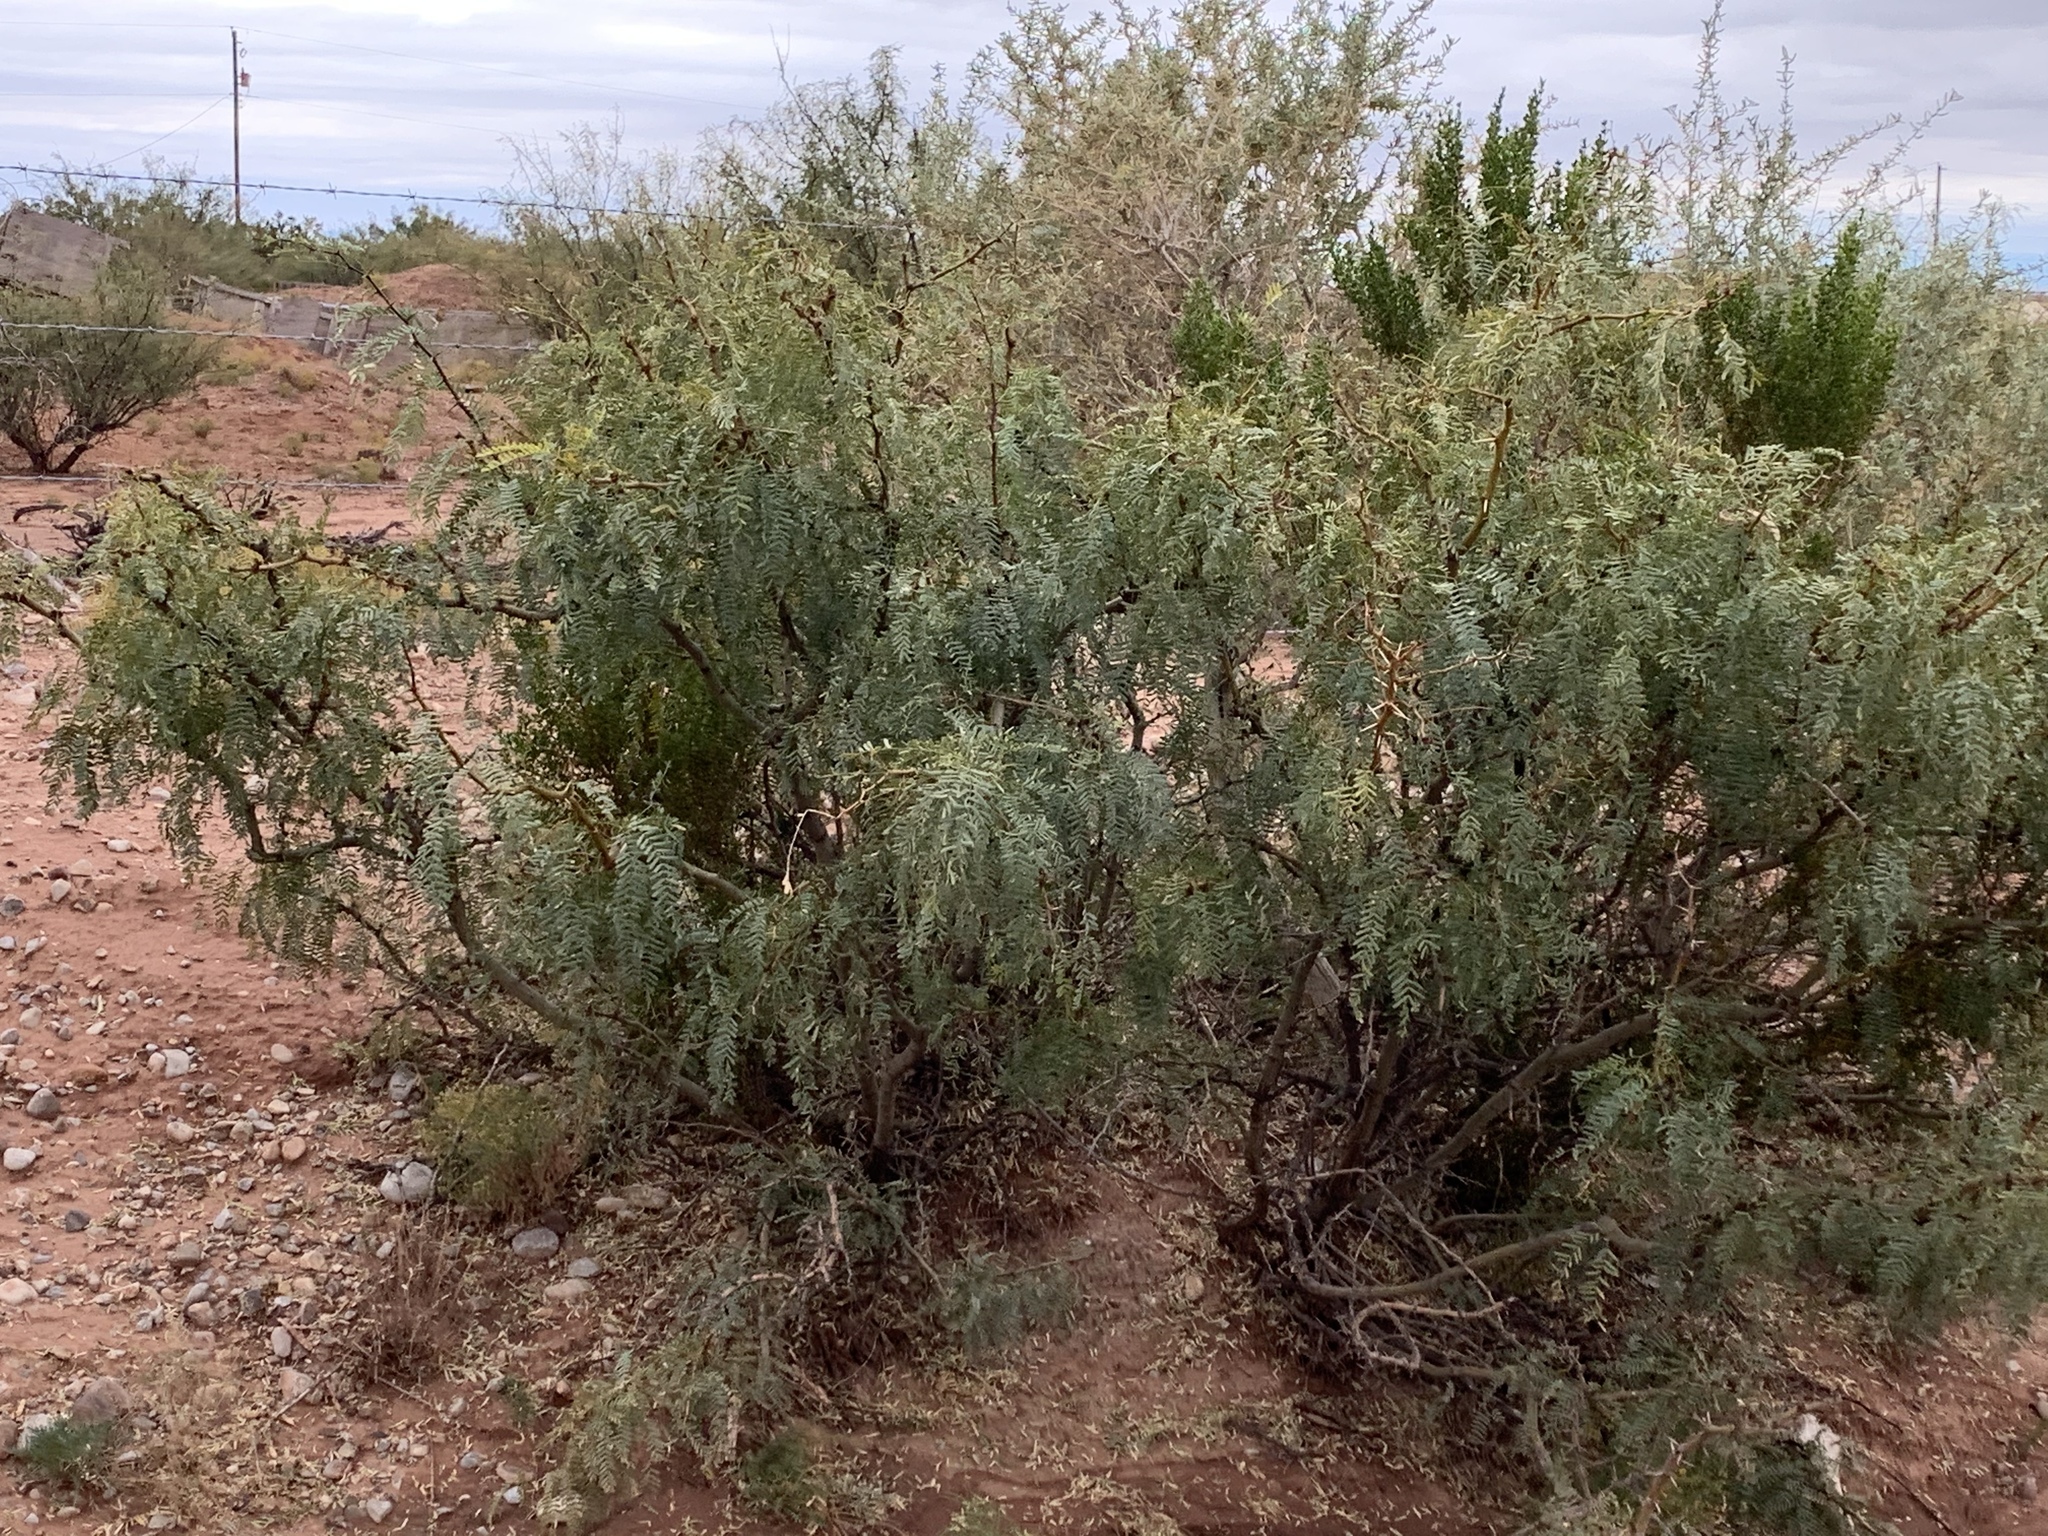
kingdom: Plantae
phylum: Tracheophyta
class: Magnoliopsida
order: Fabales
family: Fabaceae
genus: Prosopis
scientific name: Prosopis glandulosa
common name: Honey mesquite
